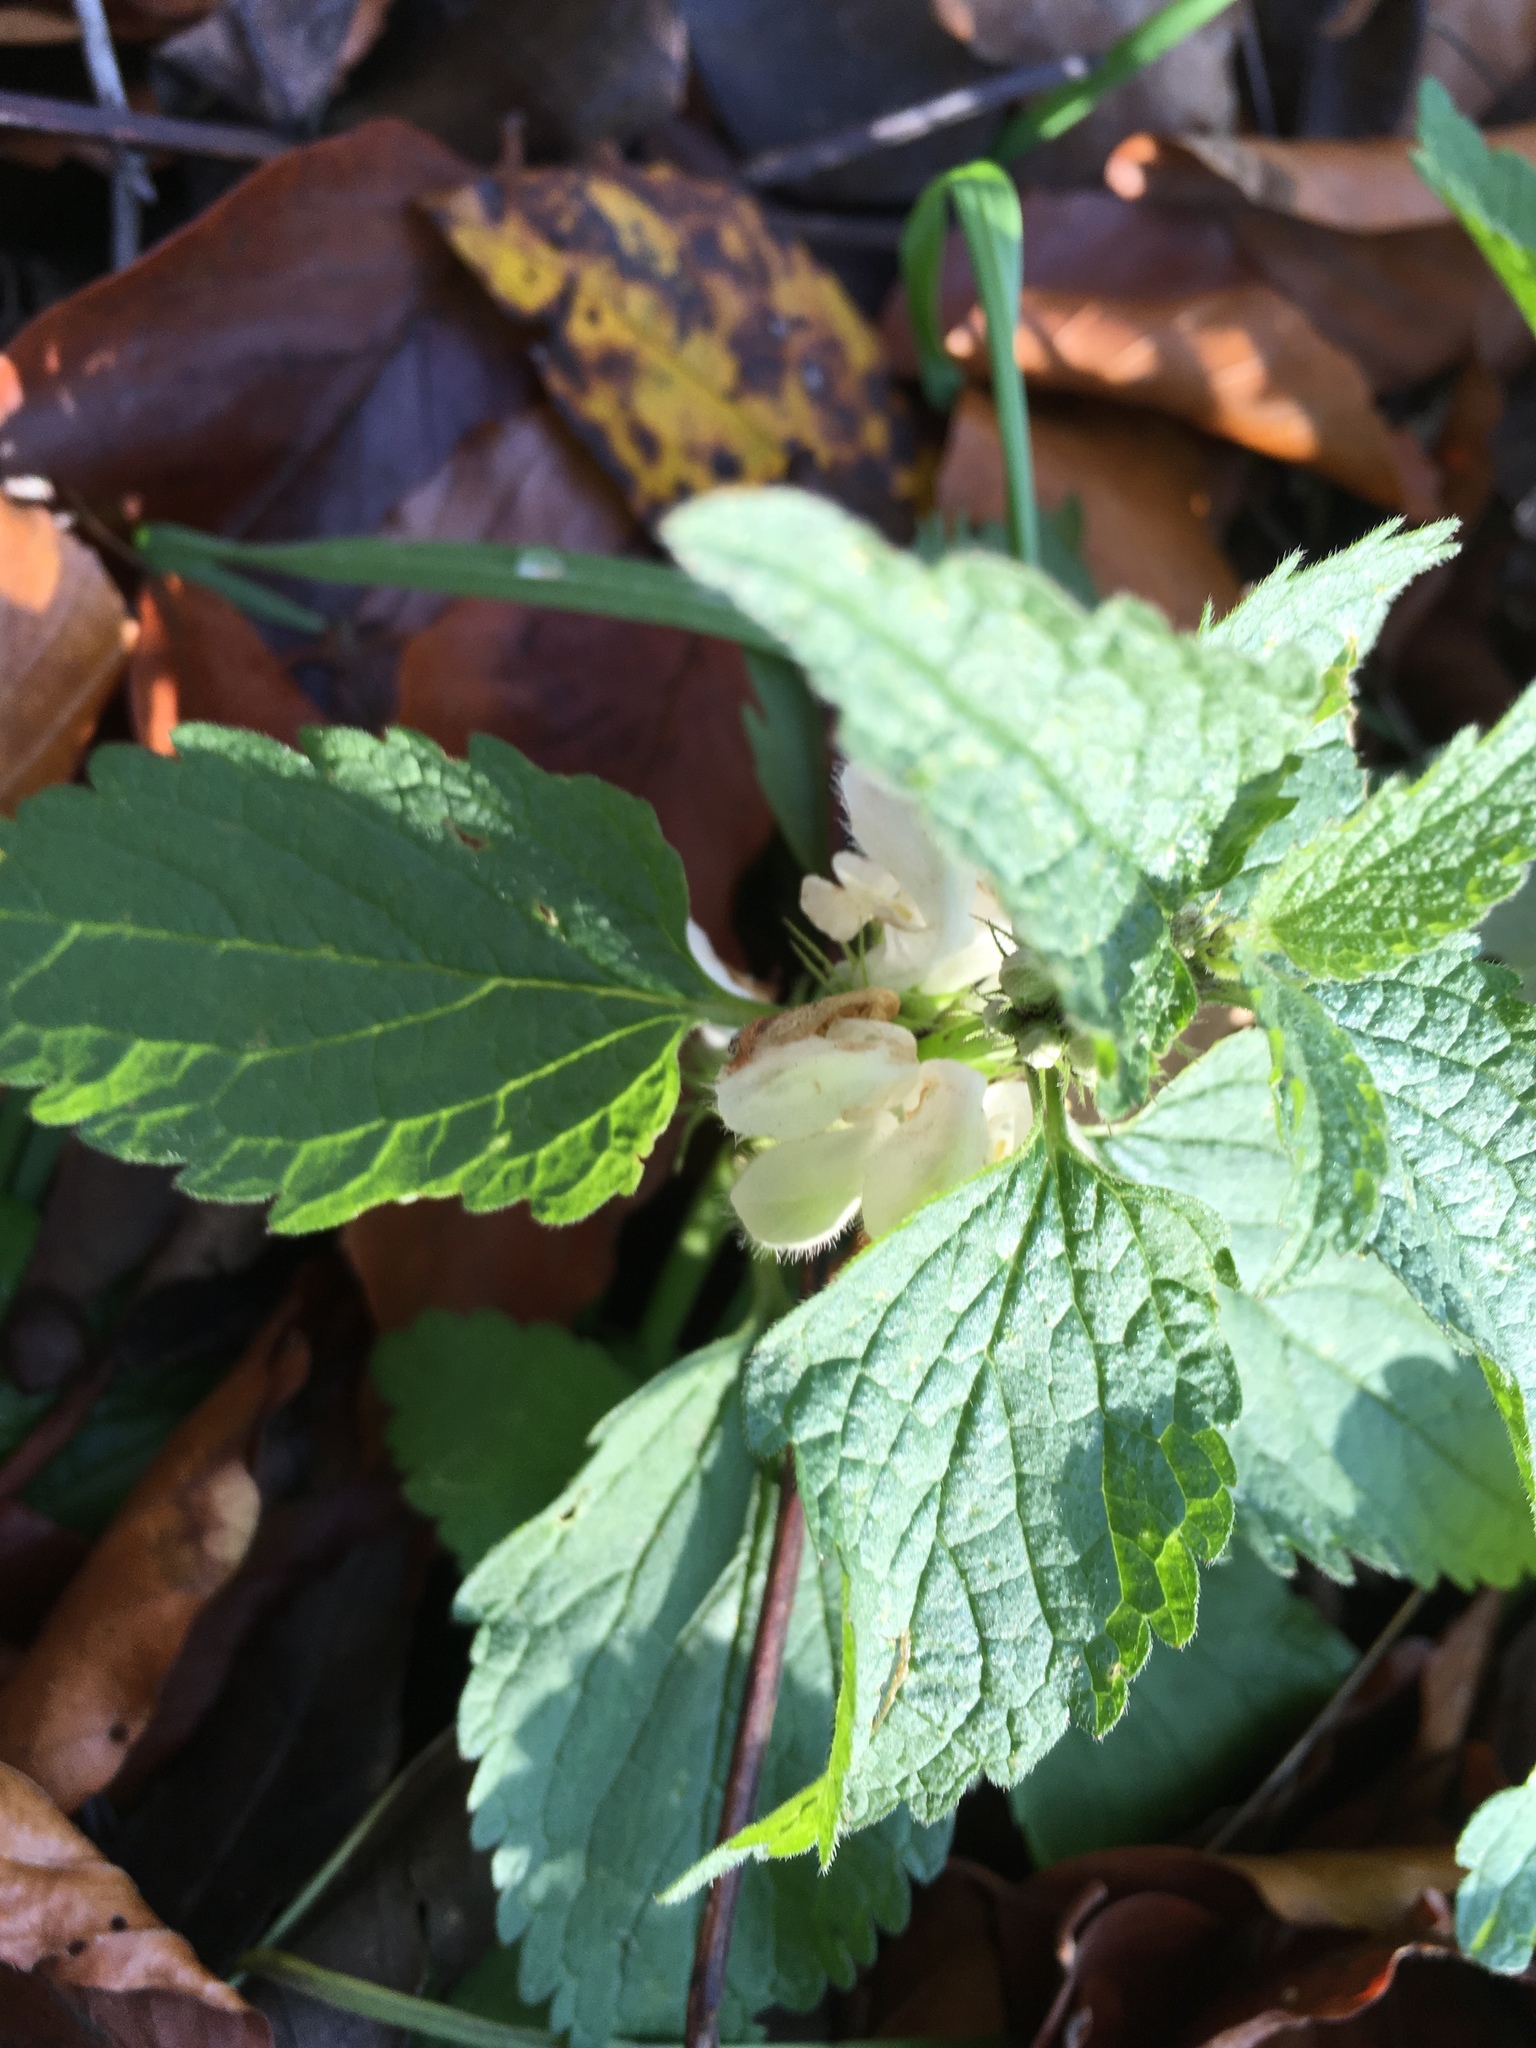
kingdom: Plantae
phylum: Tracheophyta
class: Magnoliopsida
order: Lamiales
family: Lamiaceae
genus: Lamium
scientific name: Lamium album
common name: White dead-nettle
